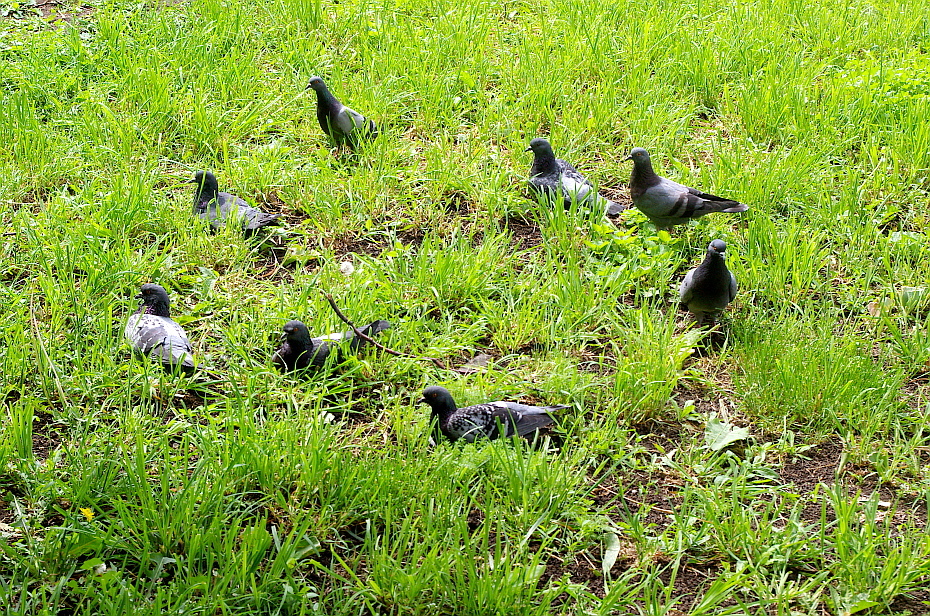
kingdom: Animalia
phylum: Chordata
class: Aves
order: Columbiformes
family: Columbidae
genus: Columba
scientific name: Columba livia
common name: Rock pigeon
